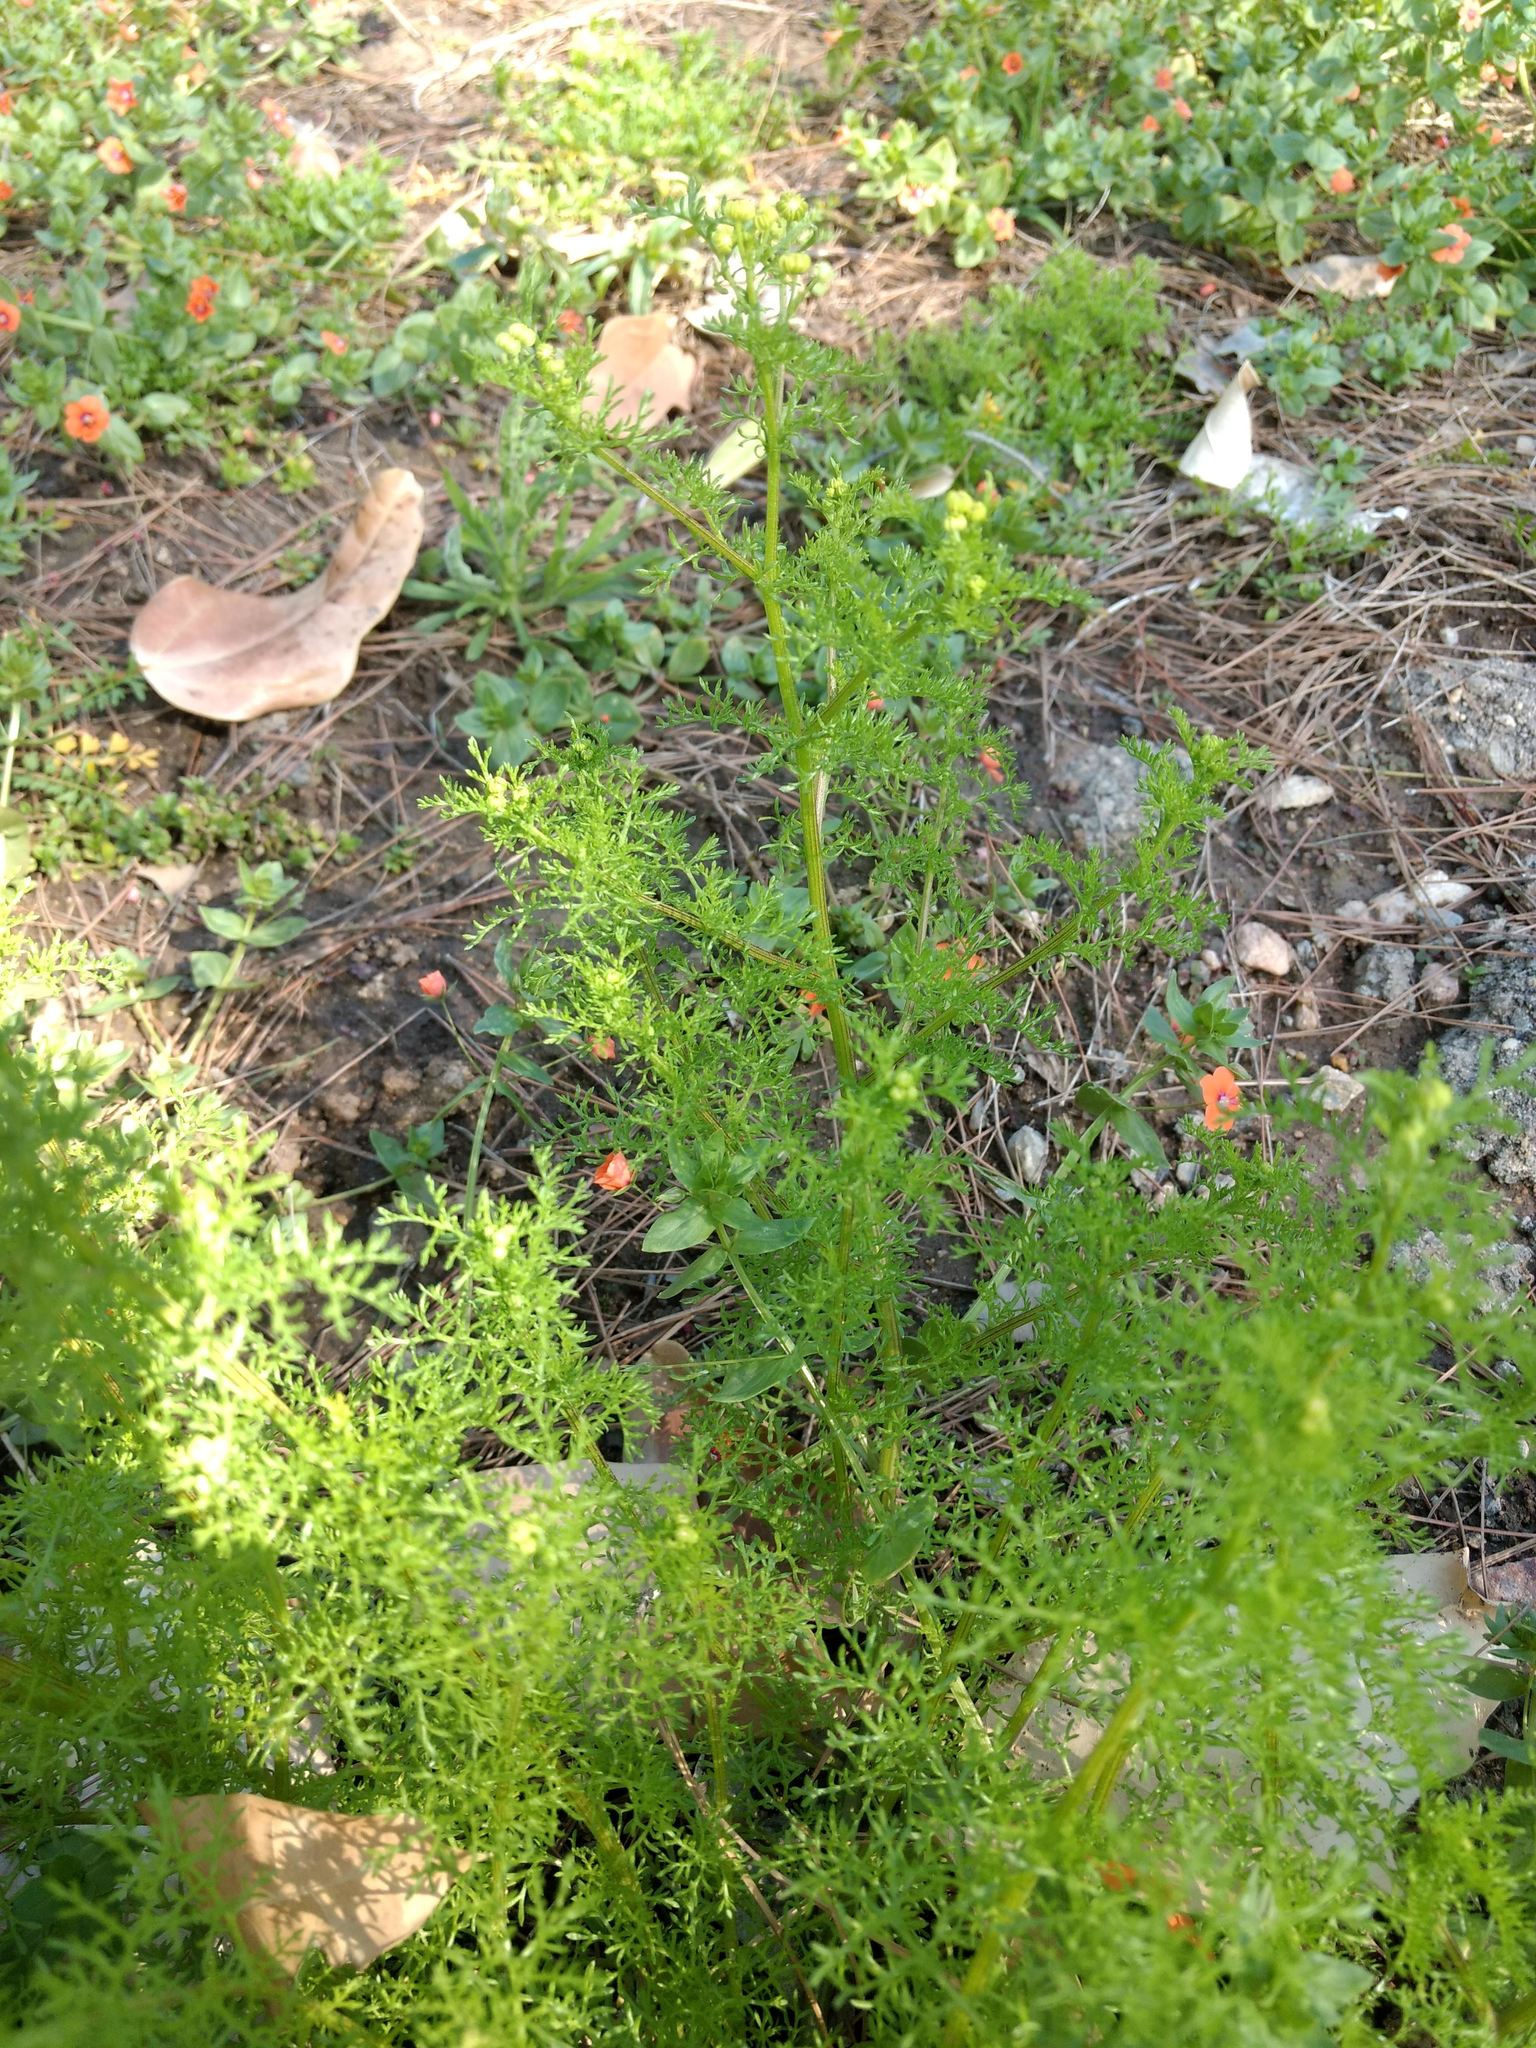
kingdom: Plantae
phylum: Tracheophyta
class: Magnoliopsida
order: Asterales
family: Asteraceae
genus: Oncosiphon
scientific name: Oncosiphon pilulifer
